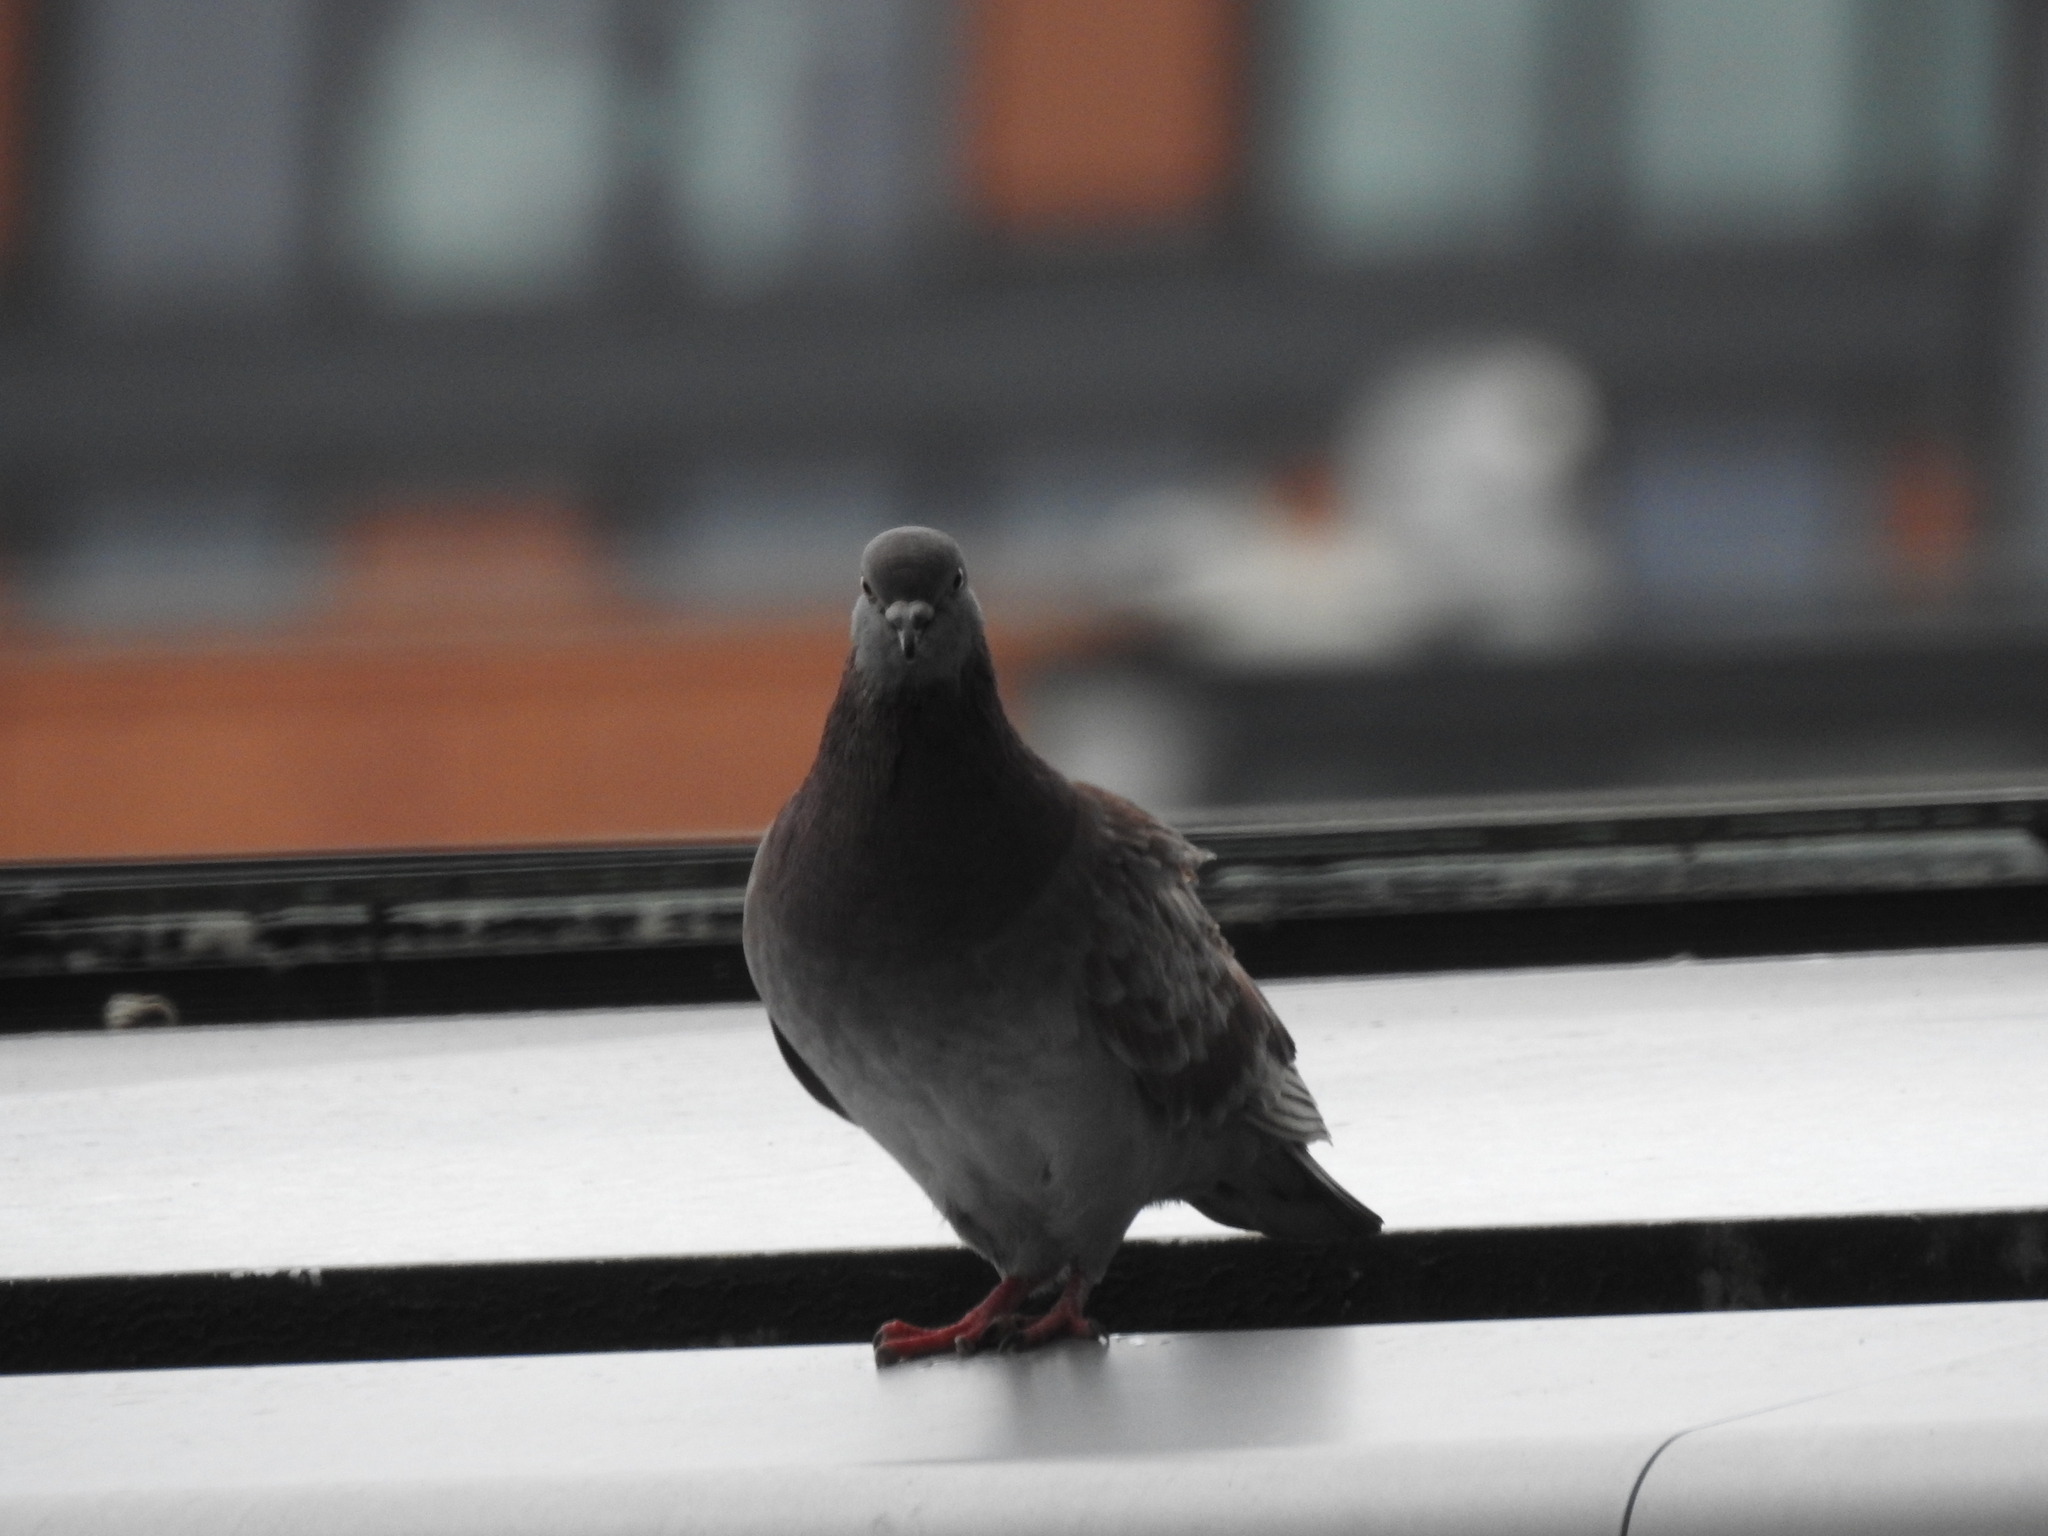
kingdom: Animalia
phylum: Chordata
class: Aves
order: Columbiformes
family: Columbidae
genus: Columba
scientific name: Columba livia
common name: Rock pigeon
